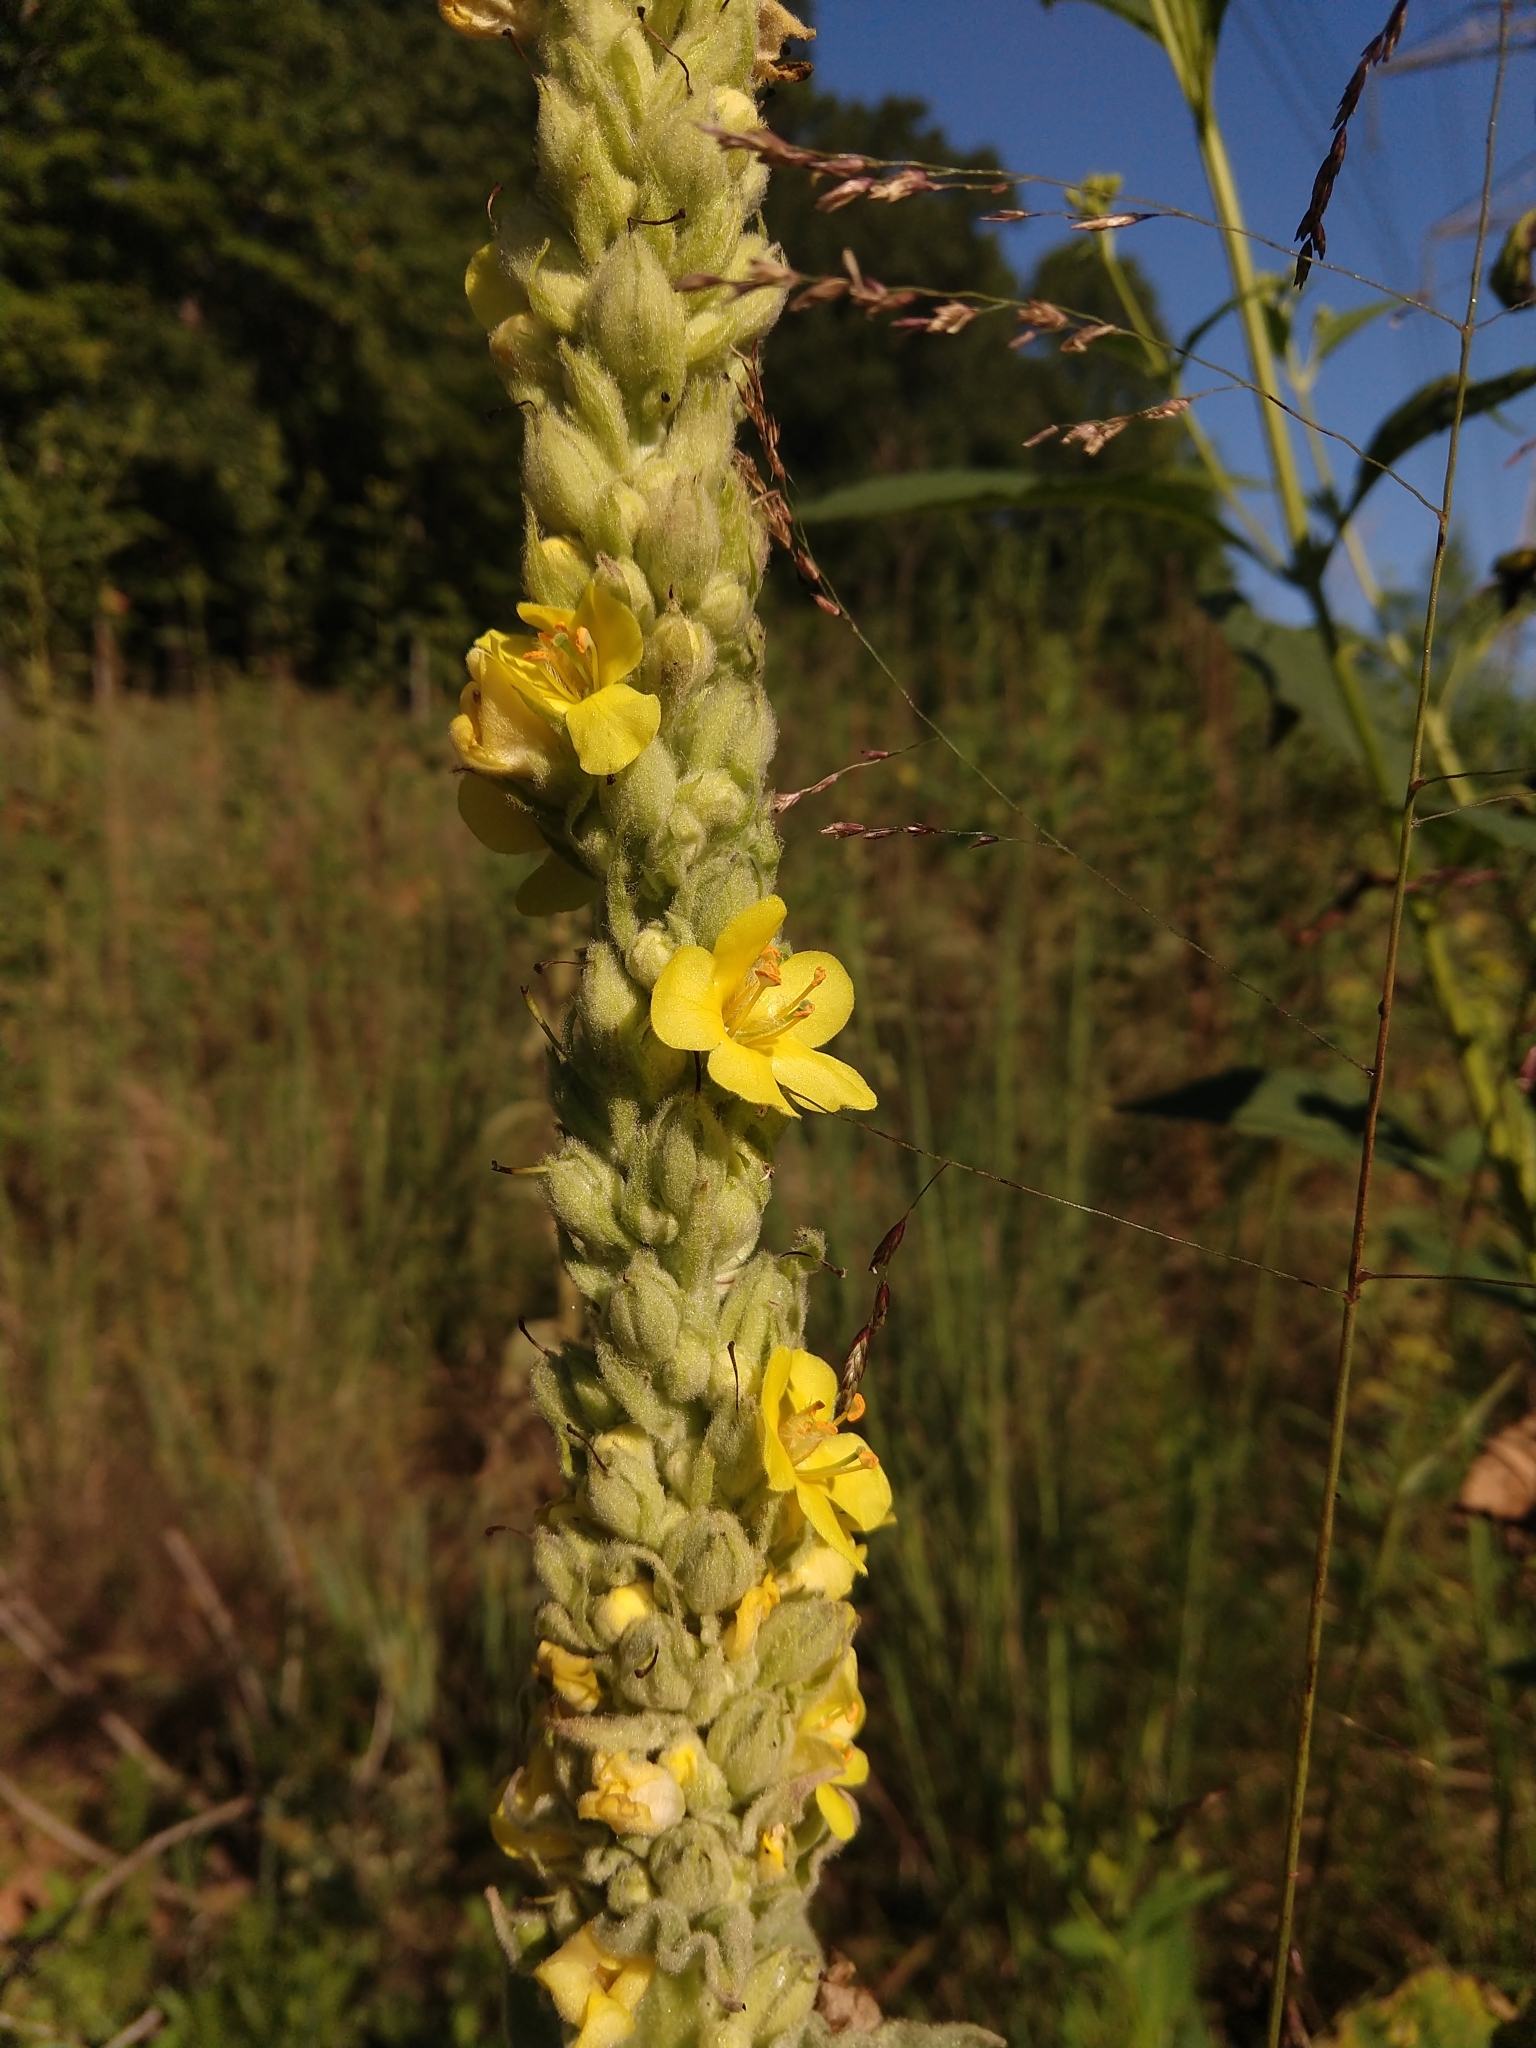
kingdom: Plantae
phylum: Tracheophyta
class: Magnoliopsida
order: Lamiales
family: Scrophulariaceae
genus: Verbascum
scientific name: Verbascum thapsus
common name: Common mullein
